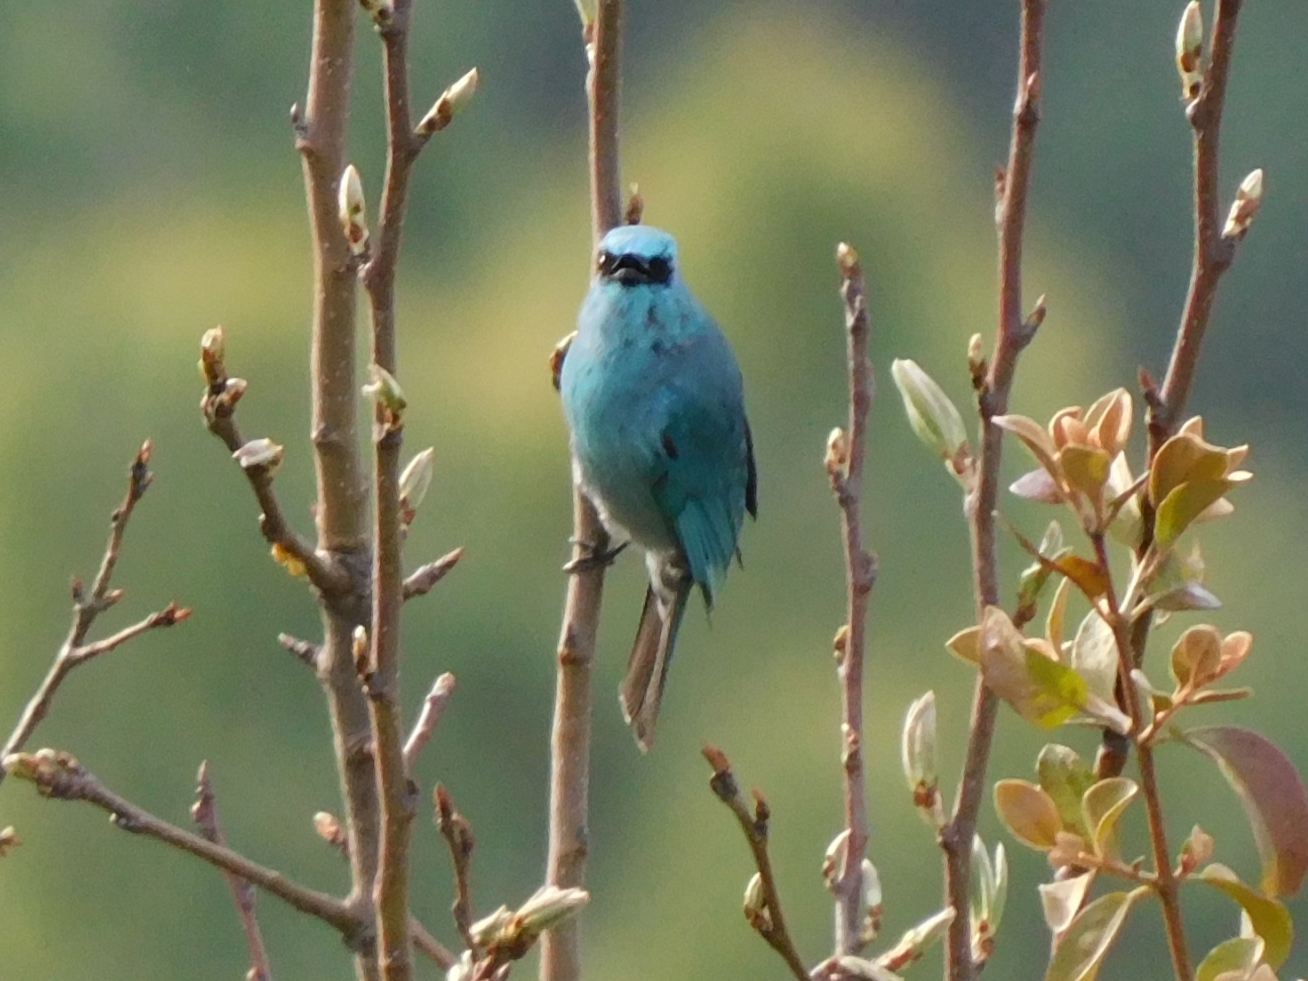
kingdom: Animalia
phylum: Chordata
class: Aves
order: Passeriformes
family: Muscicapidae
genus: Eumyias
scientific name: Eumyias thalassinus
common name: Verditer flycatcher
